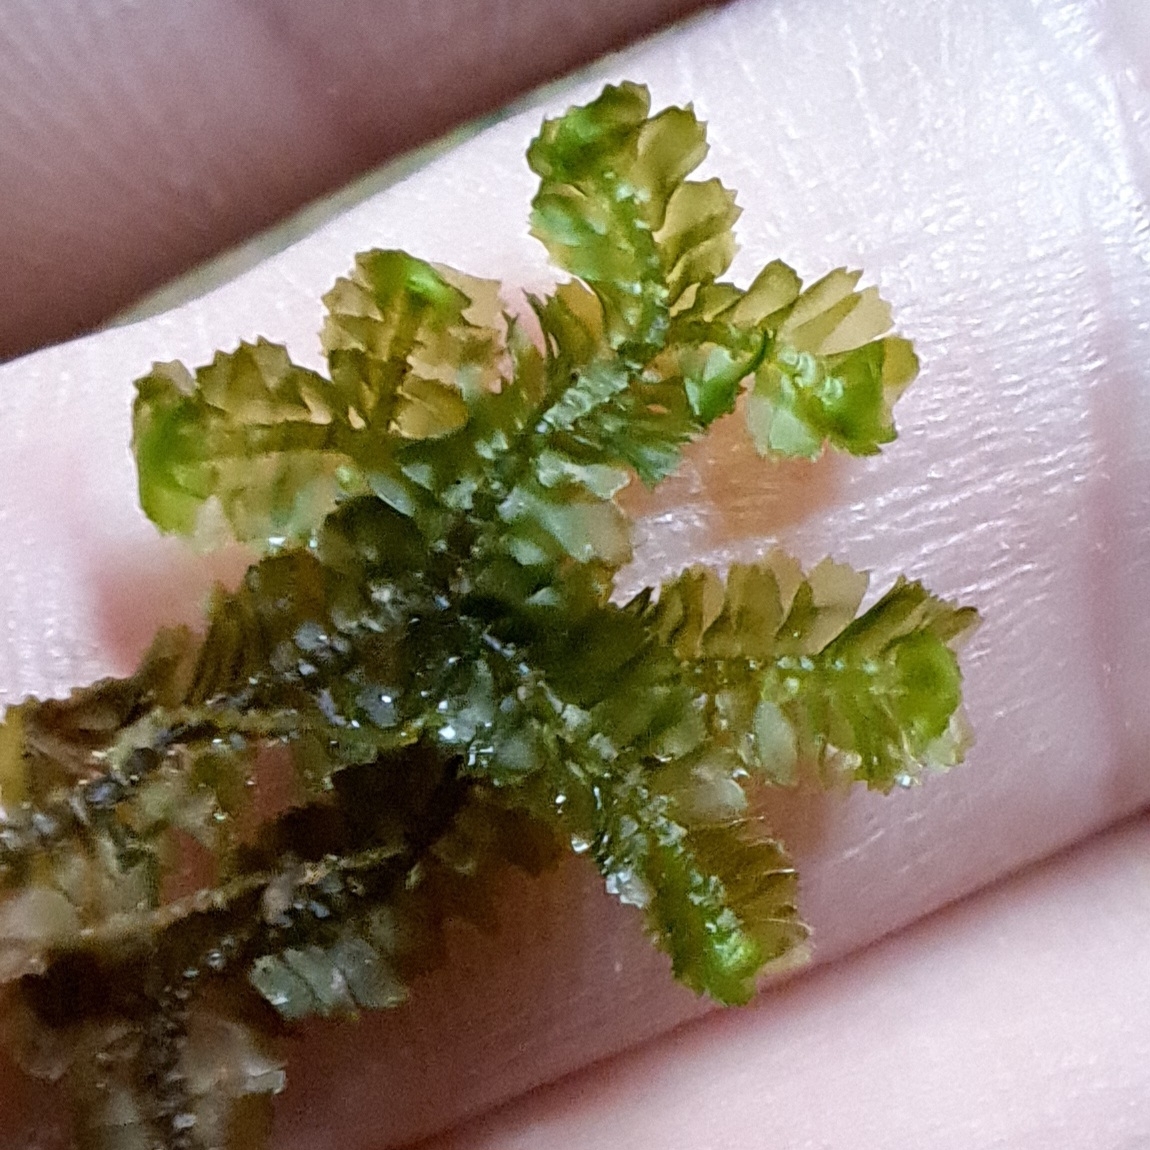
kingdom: Plantae
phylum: Marchantiophyta
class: Jungermanniopsida
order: Jungermanniales
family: Lepidoziaceae
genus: Bazzania
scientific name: Bazzania trilobata
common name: Three-lobed whipwort
